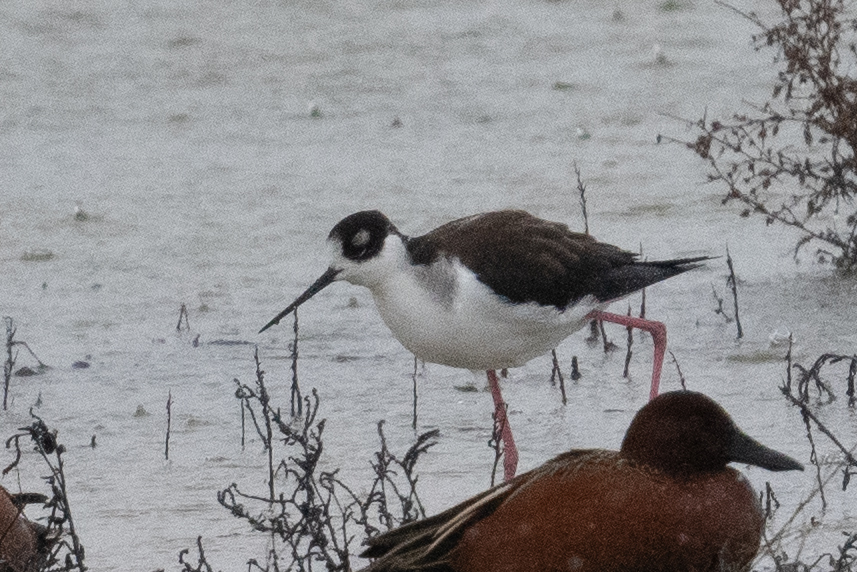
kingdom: Animalia
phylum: Chordata
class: Aves
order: Charadriiformes
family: Recurvirostridae
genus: Himantopus
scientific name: Himantopus mexicanus
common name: Black-necked stilt
